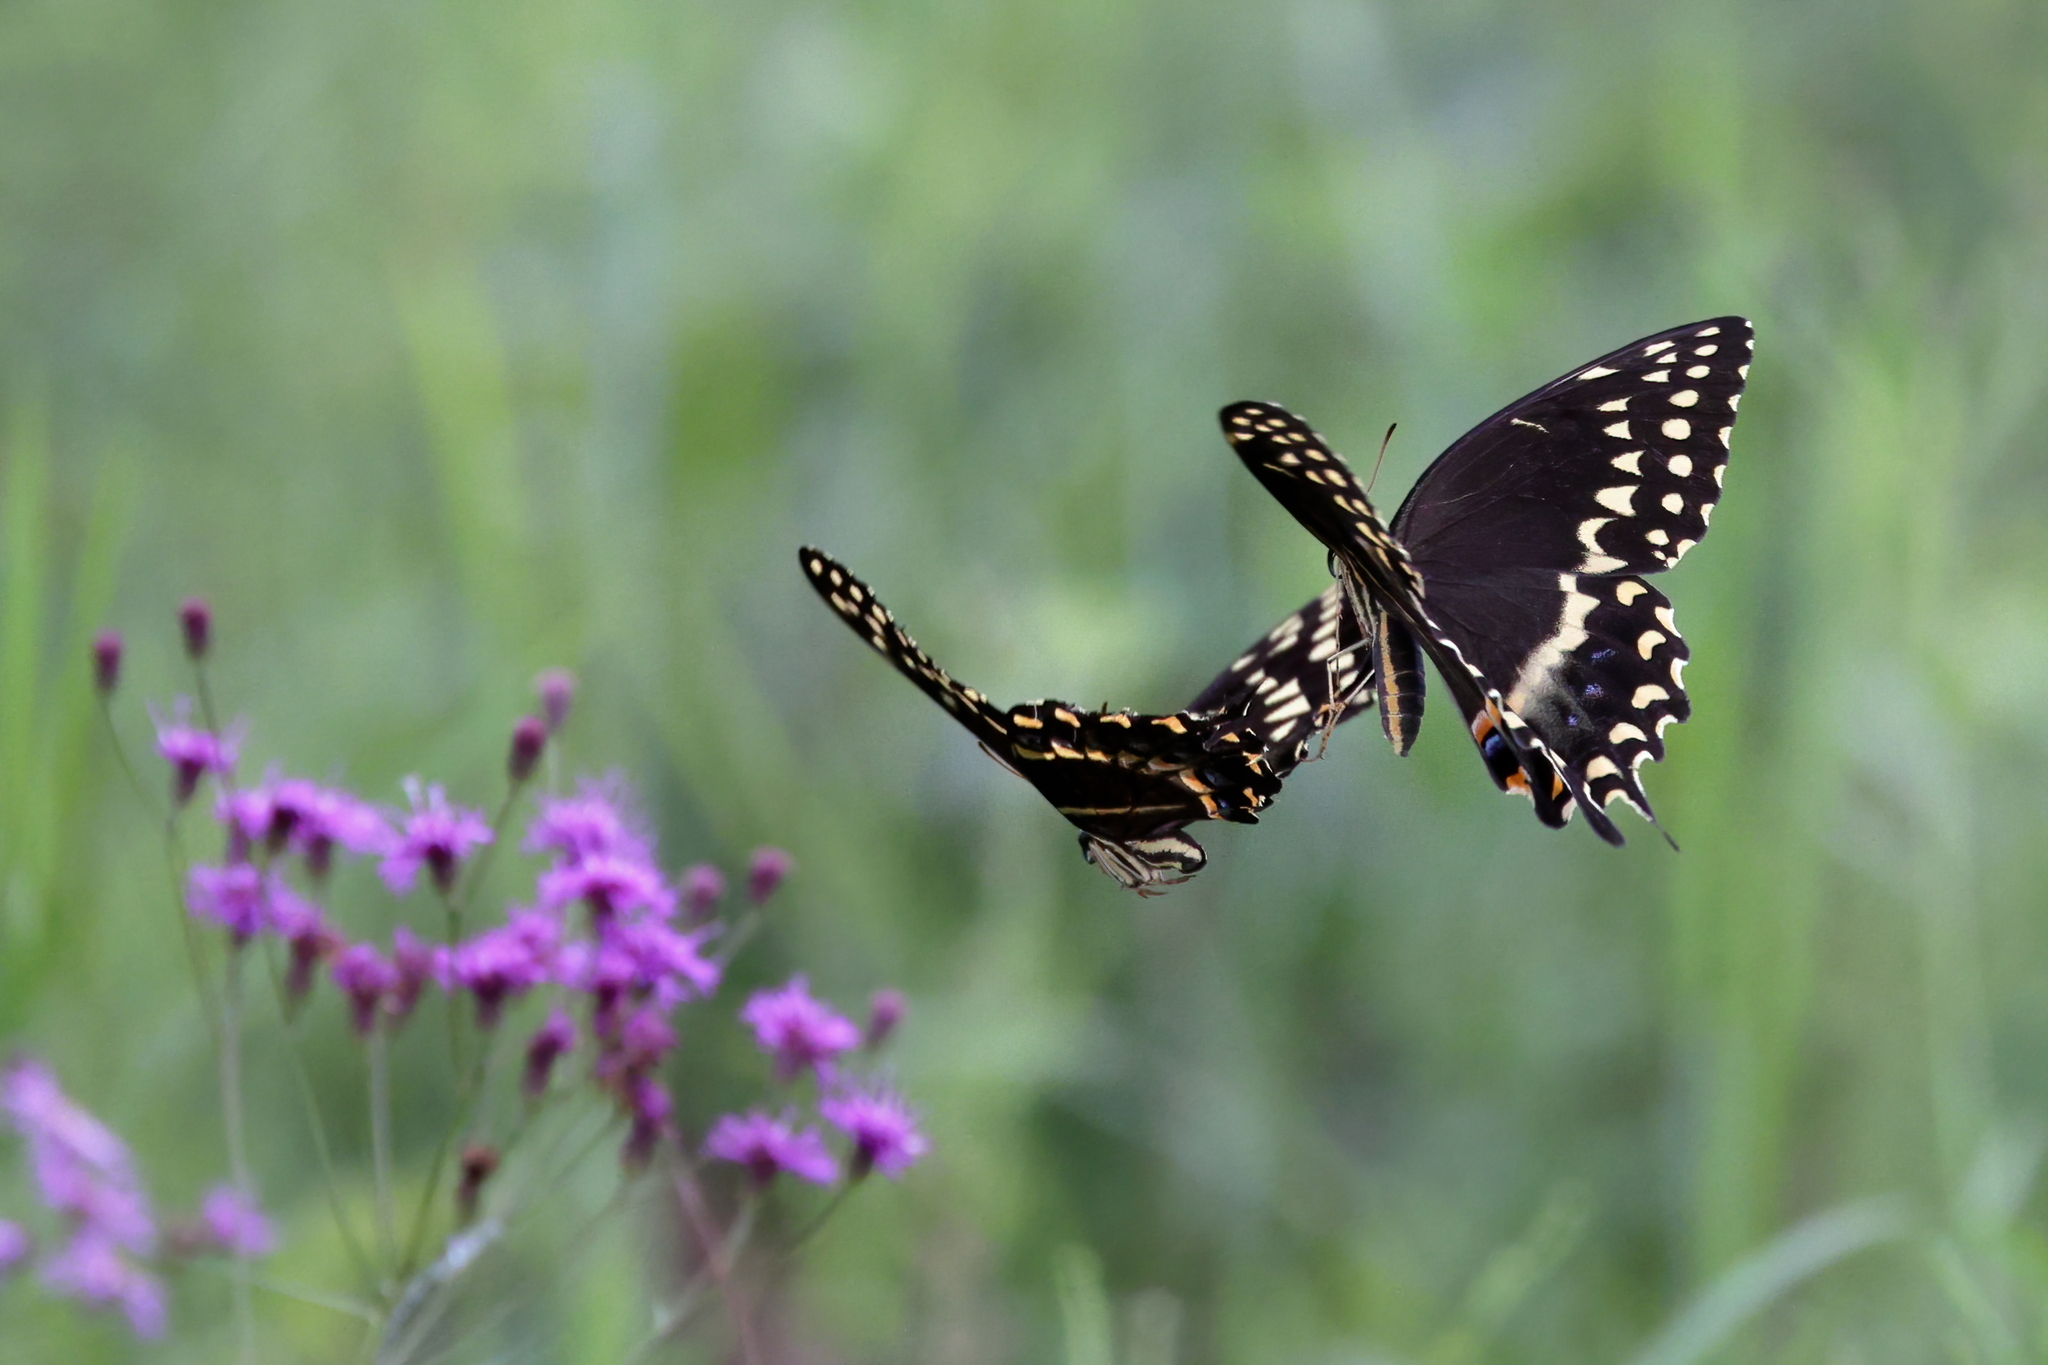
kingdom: Animalia
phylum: Arthropoda
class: Insecta
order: Lepidoptera
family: Papilionidae
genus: Papilio
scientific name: Papilio palamedes
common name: Palamedes swallowtail
